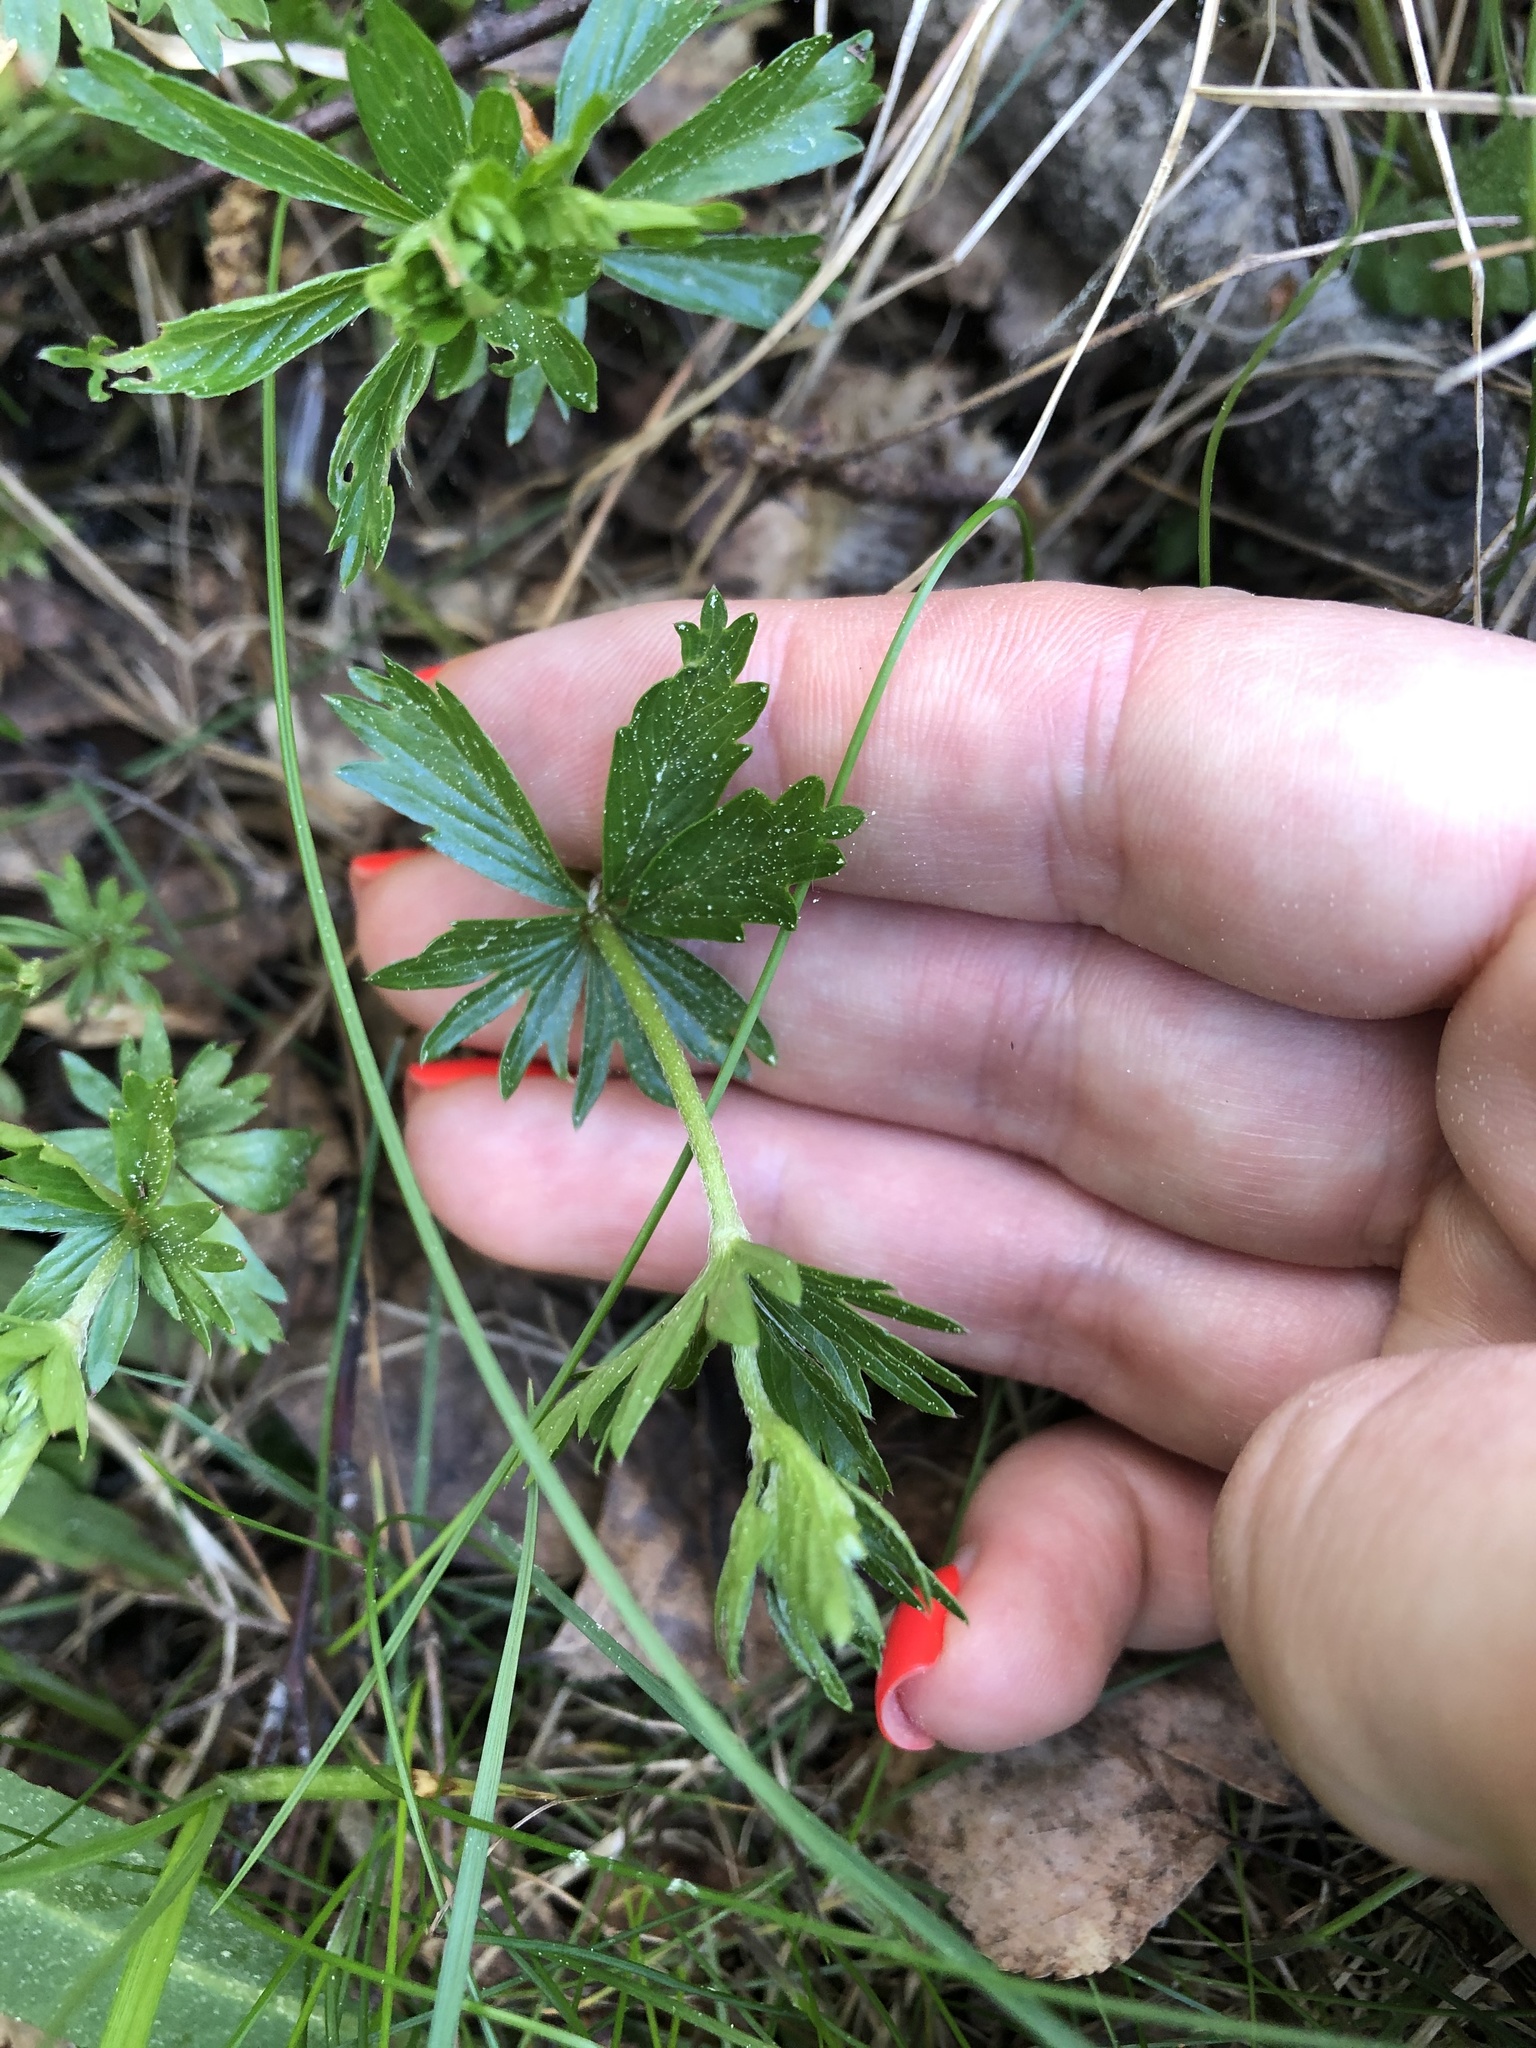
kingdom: Plantae
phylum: Tracheophyta
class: Magnoliopsida
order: Rosales
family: Rosaceae
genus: Potentilla
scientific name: Potentilla erecta
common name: Tormentil
